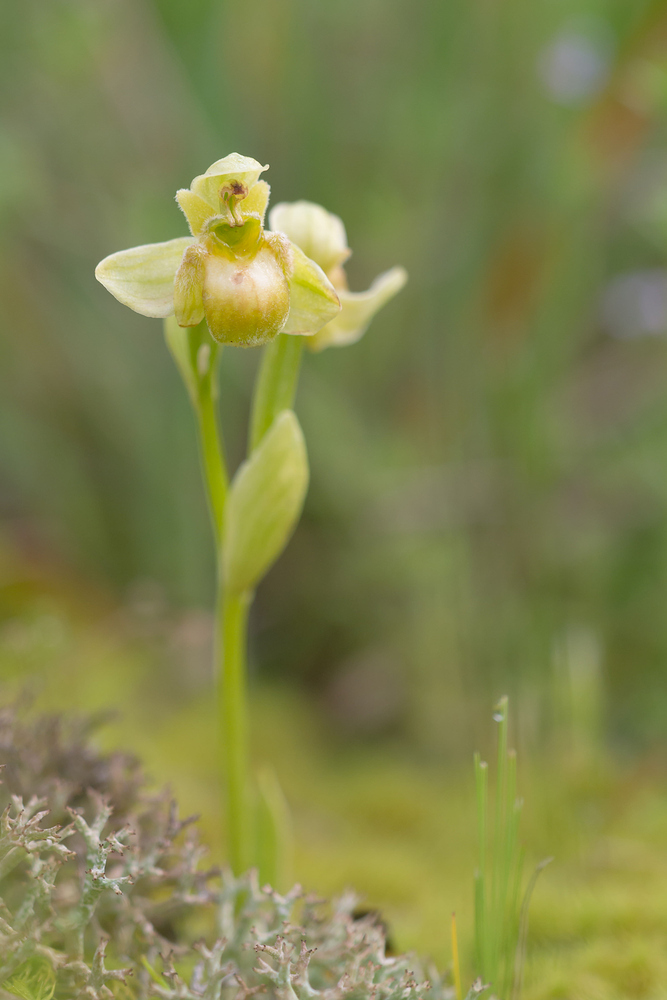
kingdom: Plantae
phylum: Tracheophyta
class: Liliopsida
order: Asparagales
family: Orchidaceae
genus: Ophrys
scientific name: Ophrys bombyliflora
